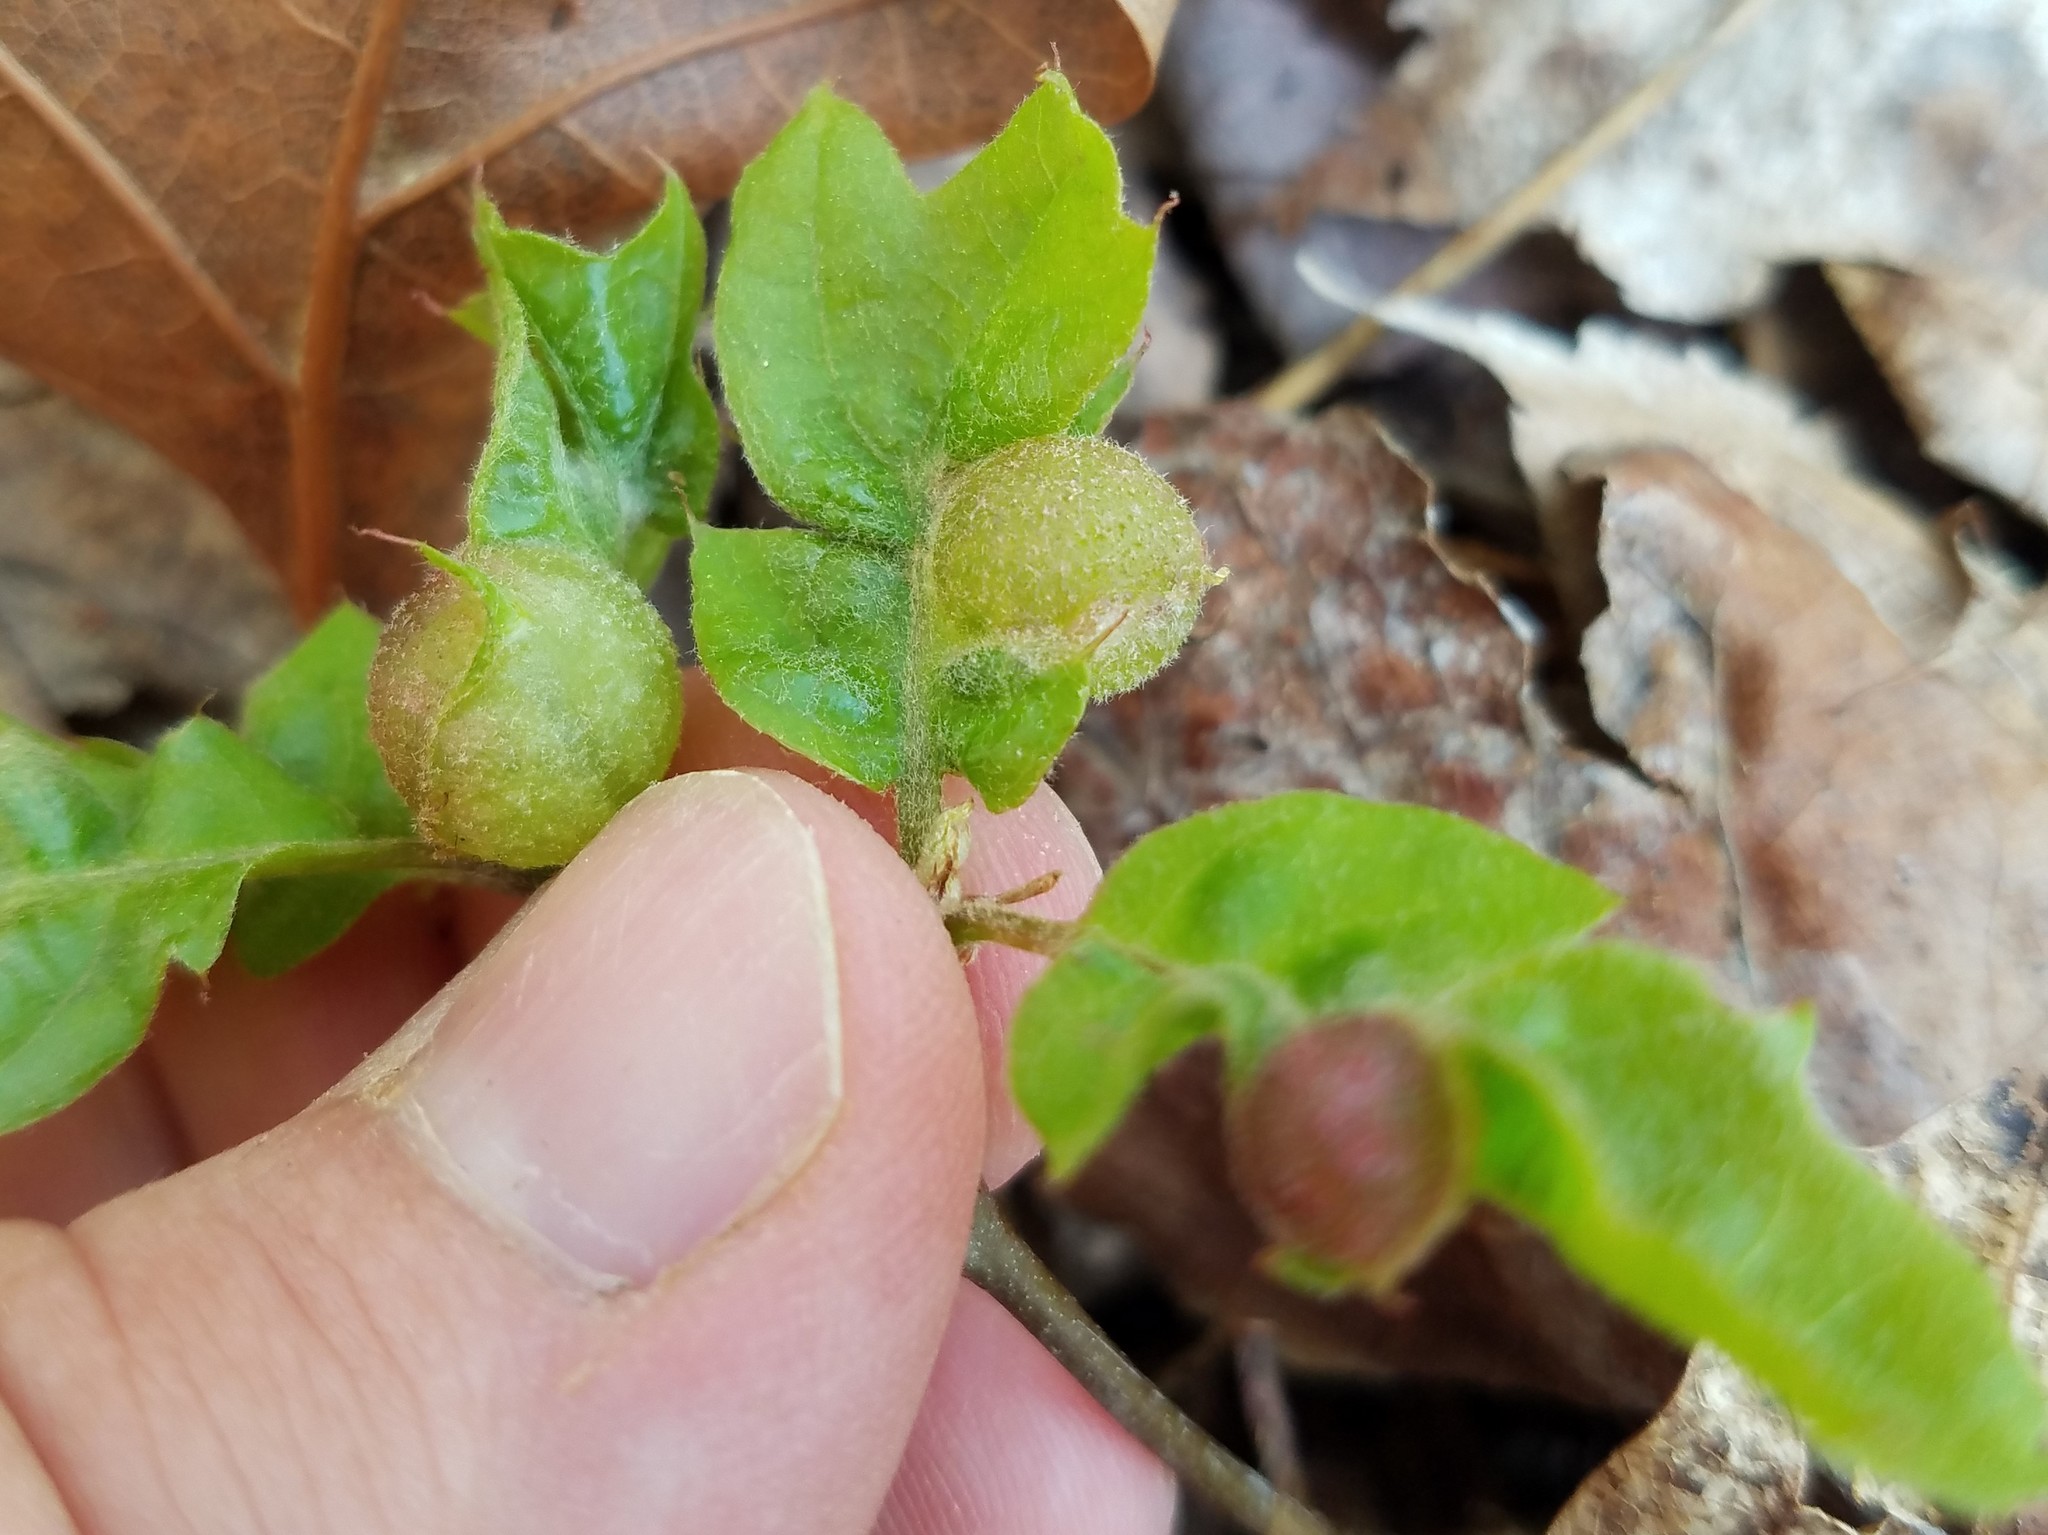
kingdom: Animalia
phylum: Arthropoda
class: Insecta
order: Hymenoptera
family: Cynipidae
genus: Dryocosmus
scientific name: Dryocosmus quercuspalustris
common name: Succulent oak gall wasp
